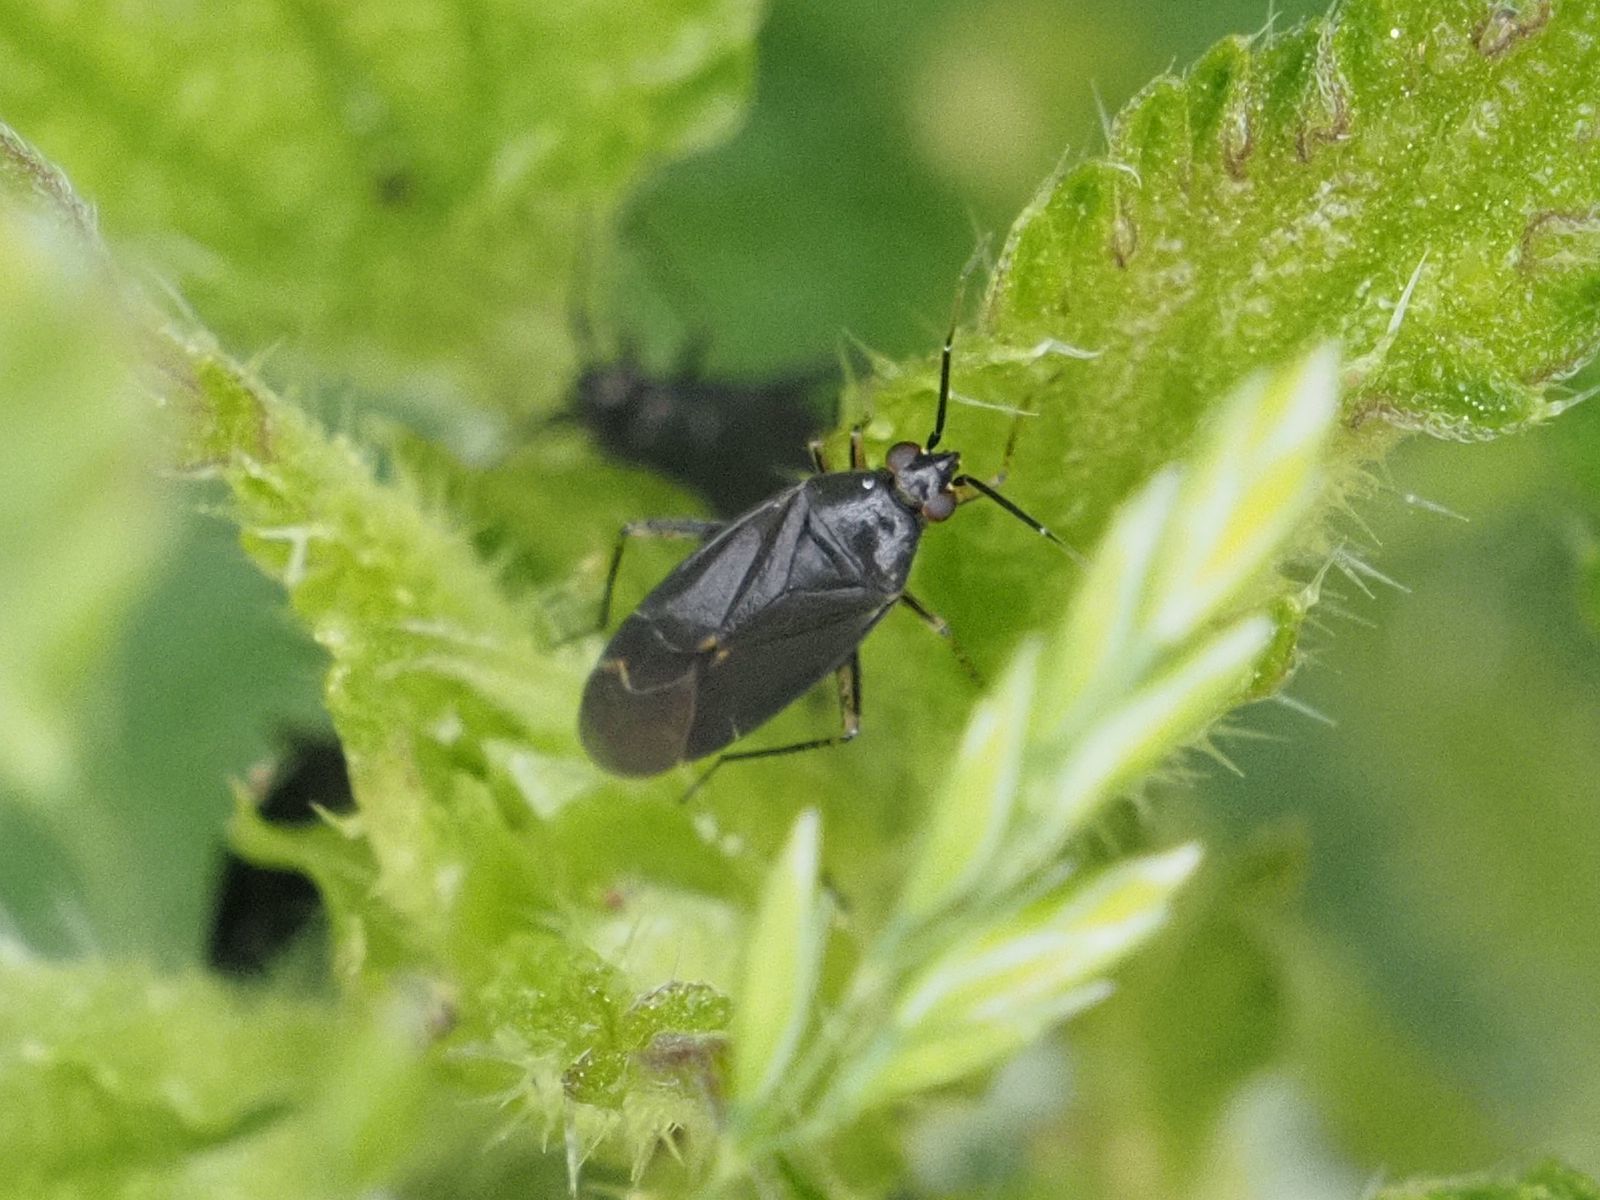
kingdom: Animalia
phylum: Arthropoda
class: Insecta
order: Hemiptera
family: Miridae
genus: Plagiognathus
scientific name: Plagiognathus arbustorum
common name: Plant bug
